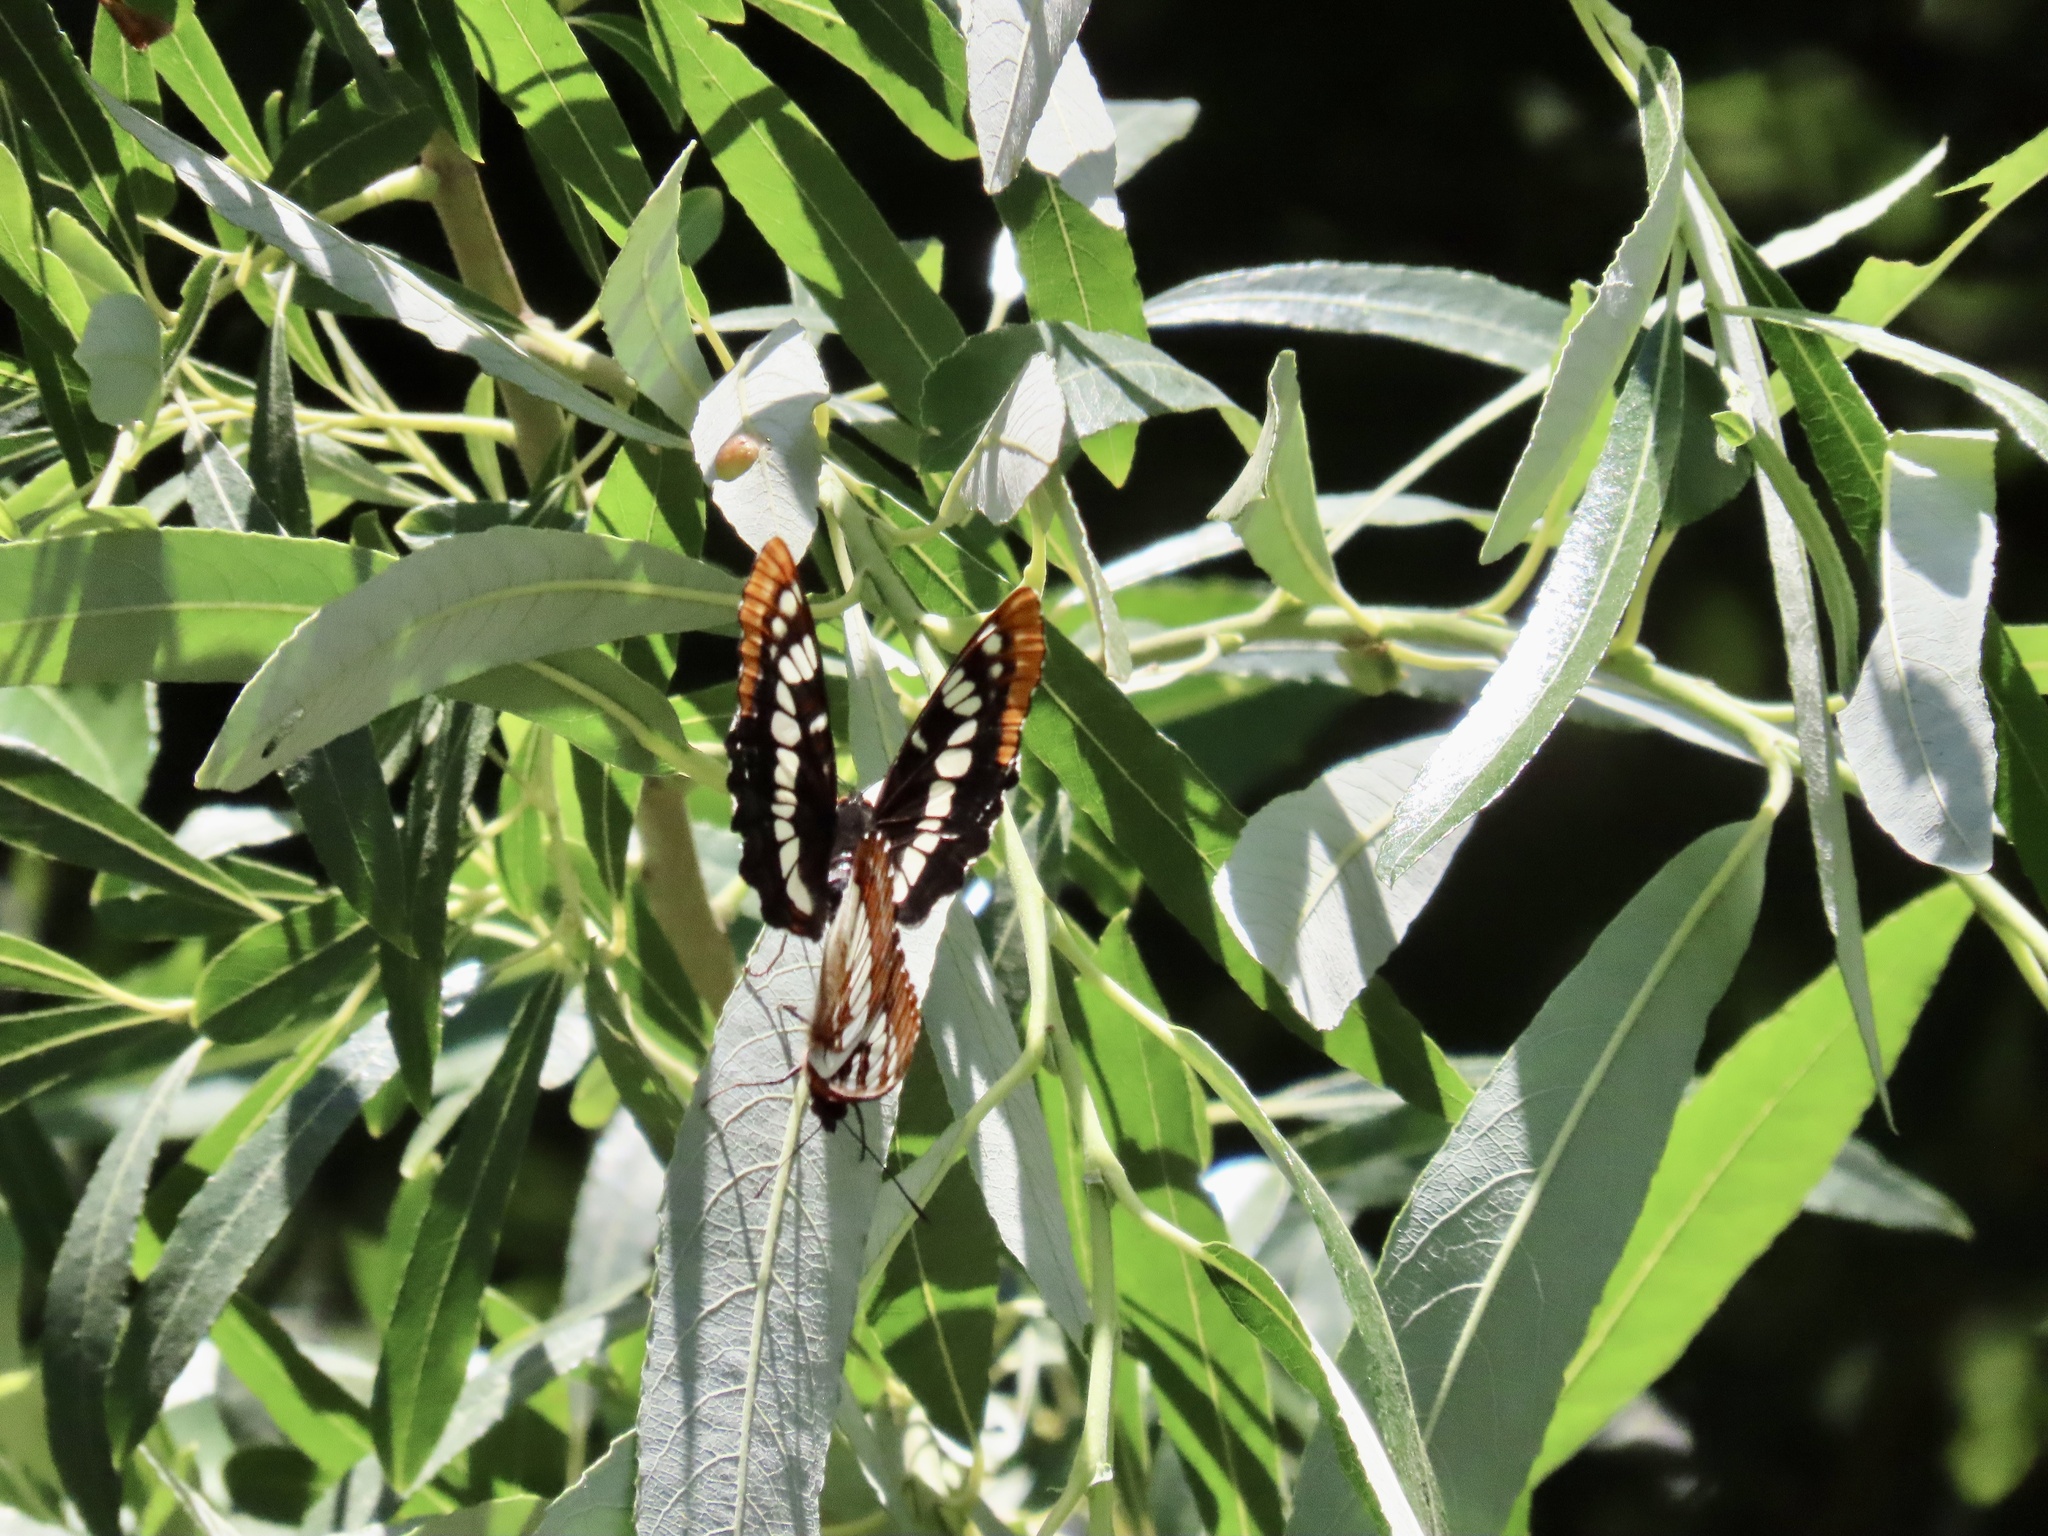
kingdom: Animalia
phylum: Arthropoda
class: Insecta
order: Lepidoptera
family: Nymphalidae
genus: Limenitis
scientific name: Limenitis lorquini
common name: Lorquin's admiral
